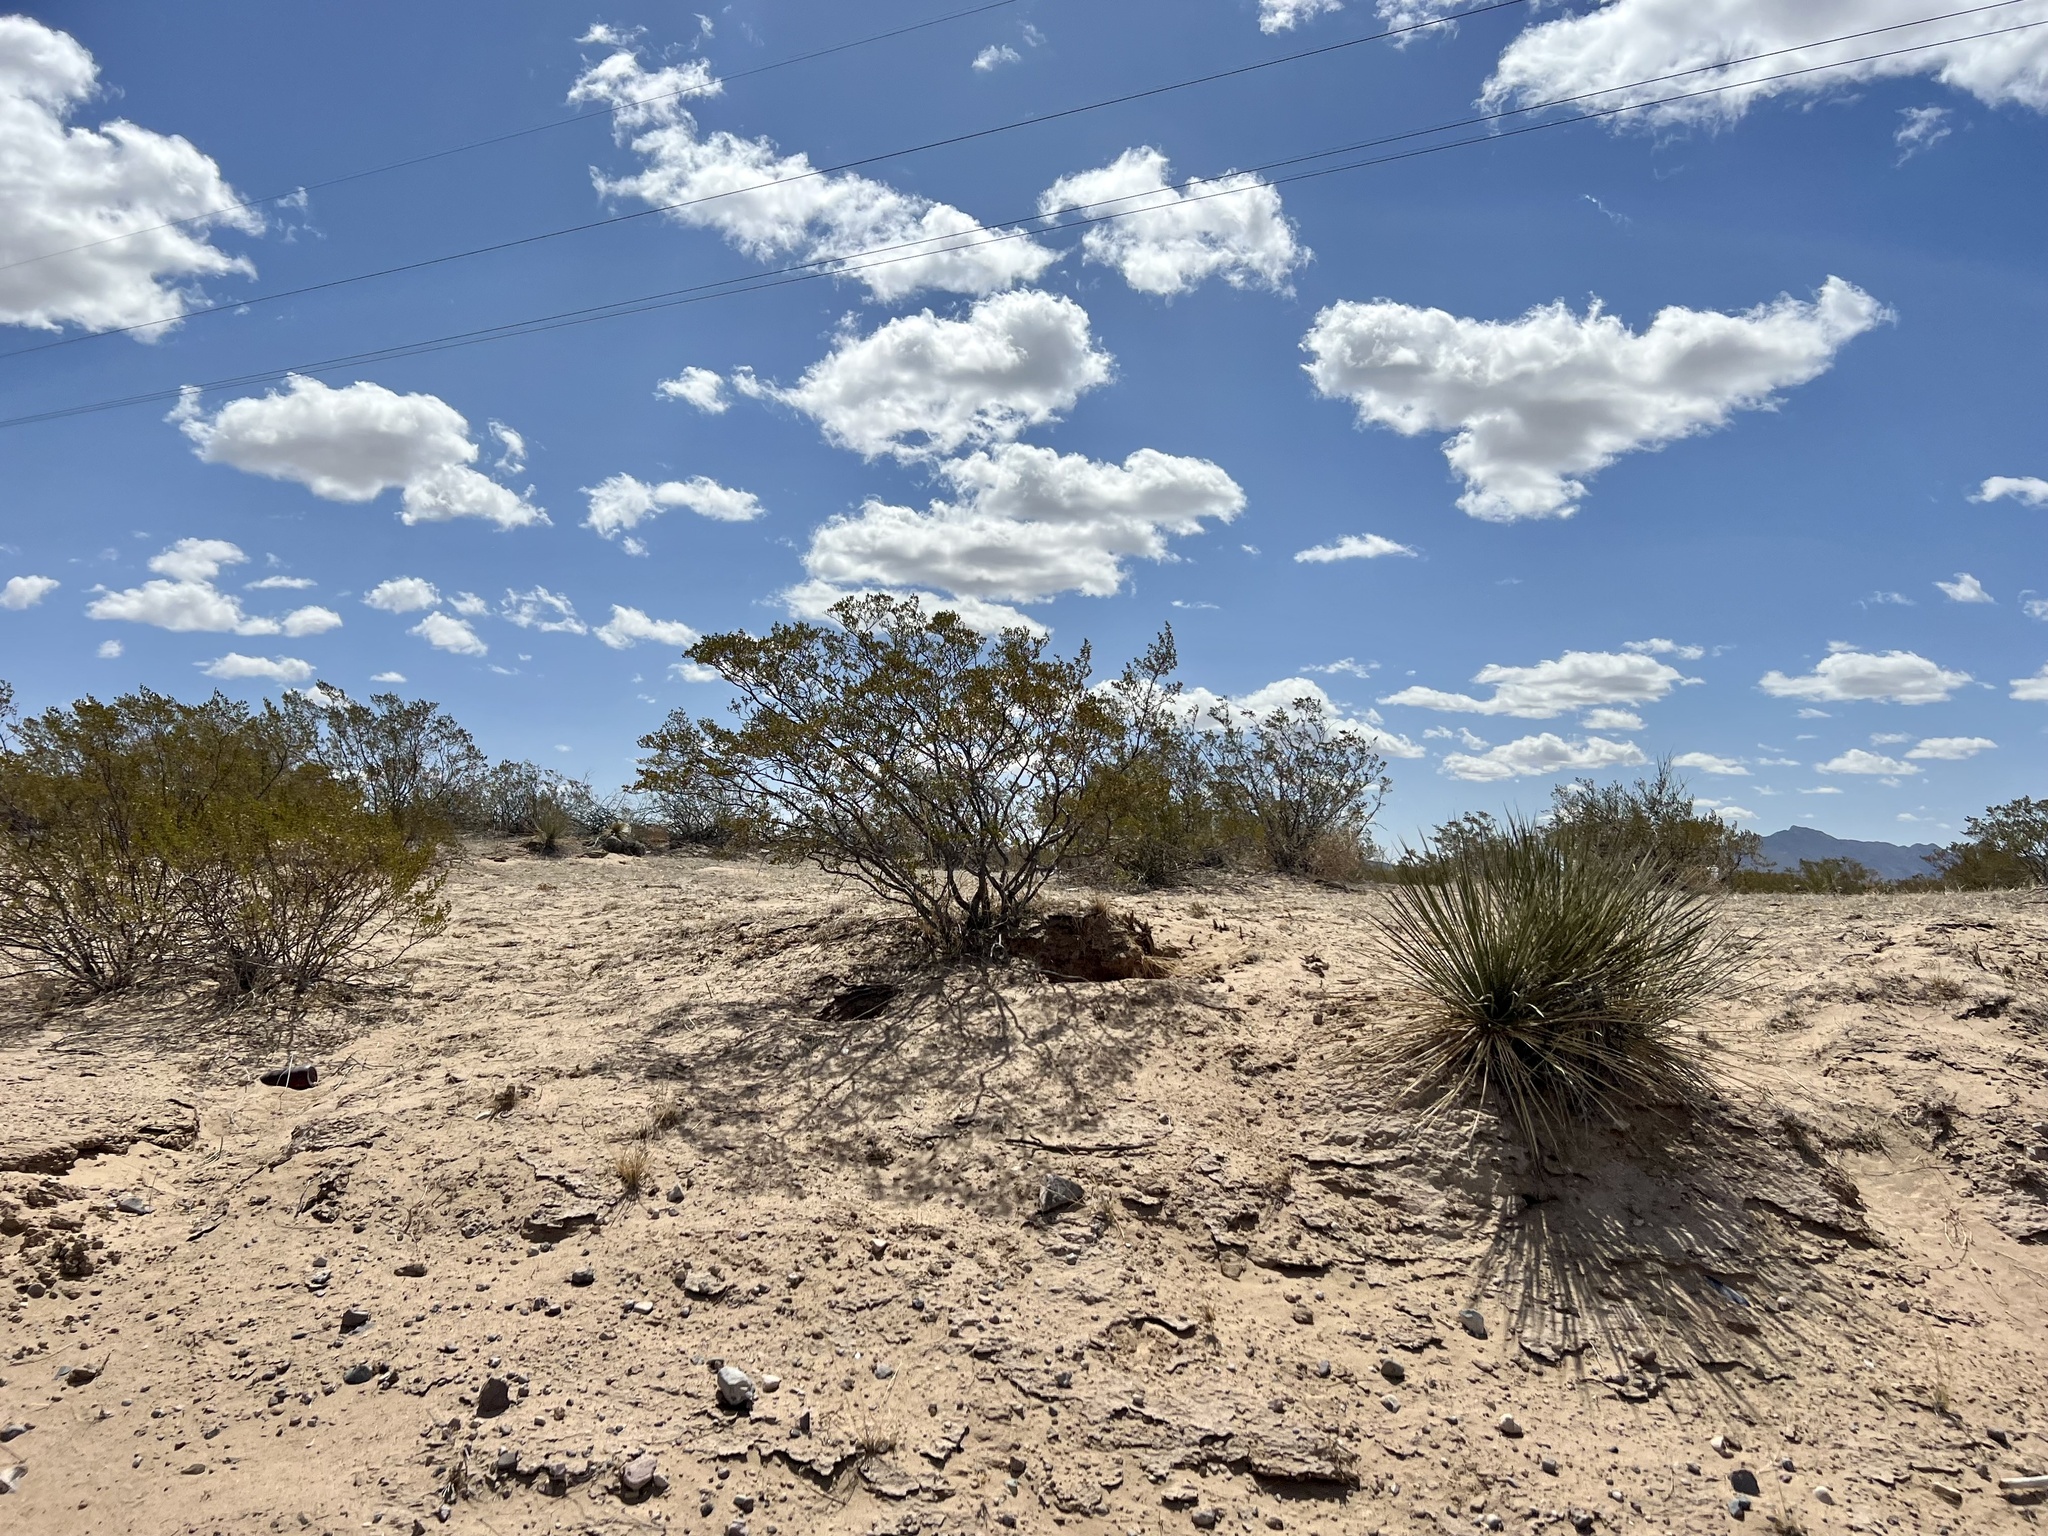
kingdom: Plantae
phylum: Tracheophyta
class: Magnoliopsida
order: Zygophyllales
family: Zygophyllaceae
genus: Larrea
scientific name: Larrea tridentata
